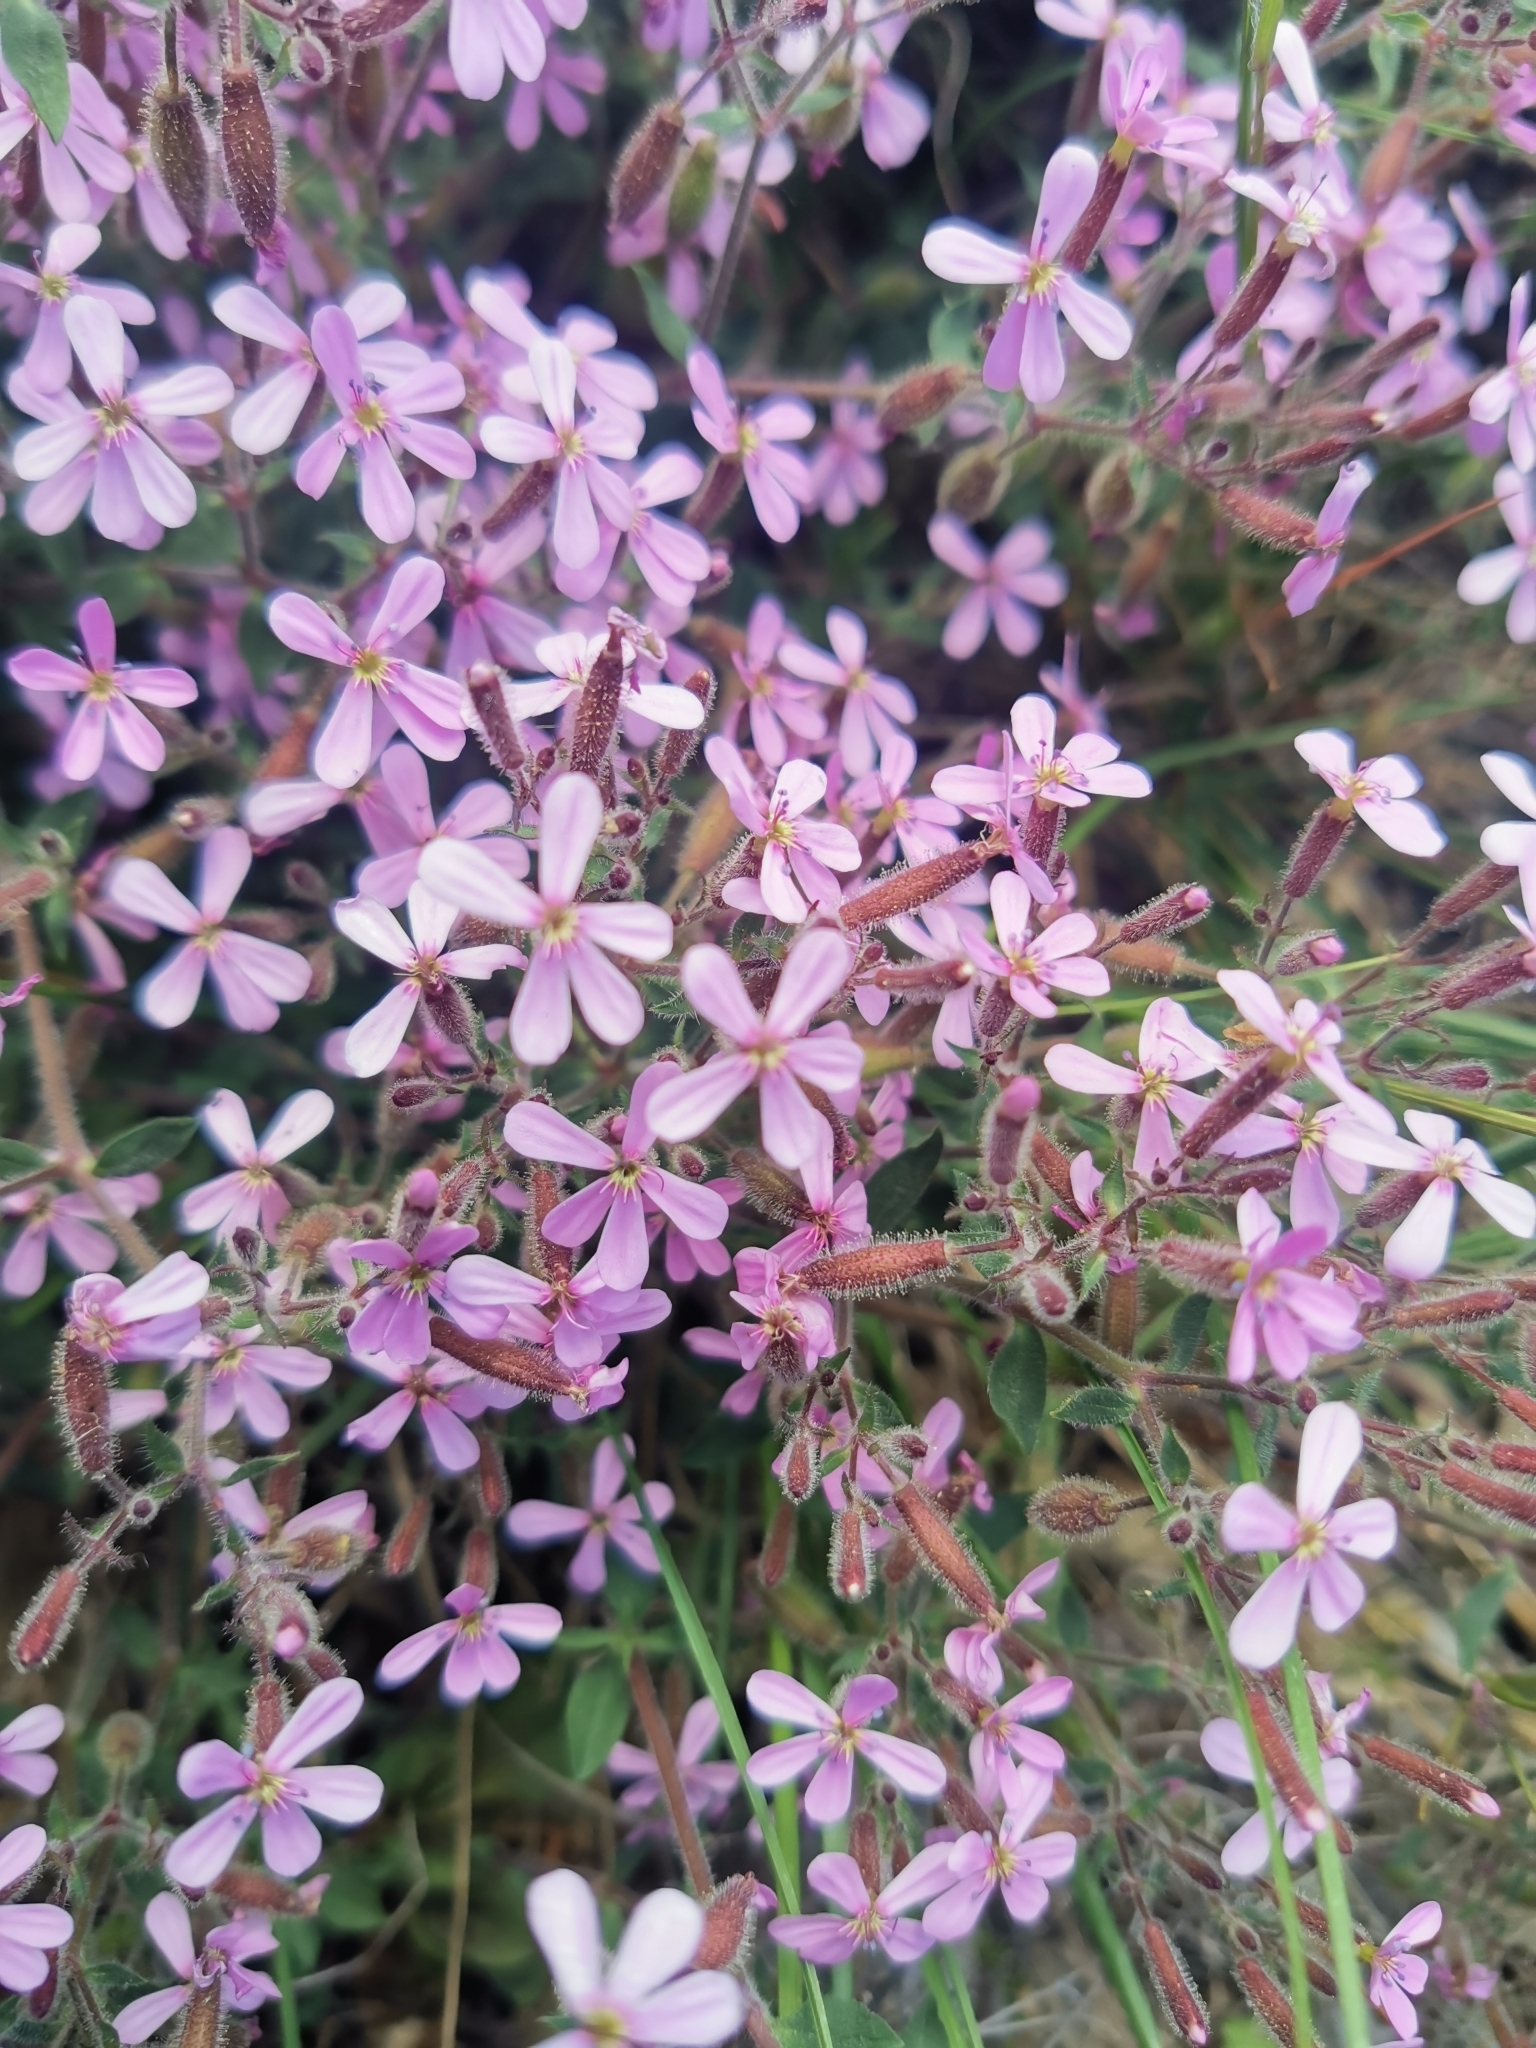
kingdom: Plantae
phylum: Tracheophyta
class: Magnoliopsida
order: Caryophyllales
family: Caryophyllaceae
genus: Saponaria
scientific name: Saponaria ocymoides
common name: Rock soapwort
